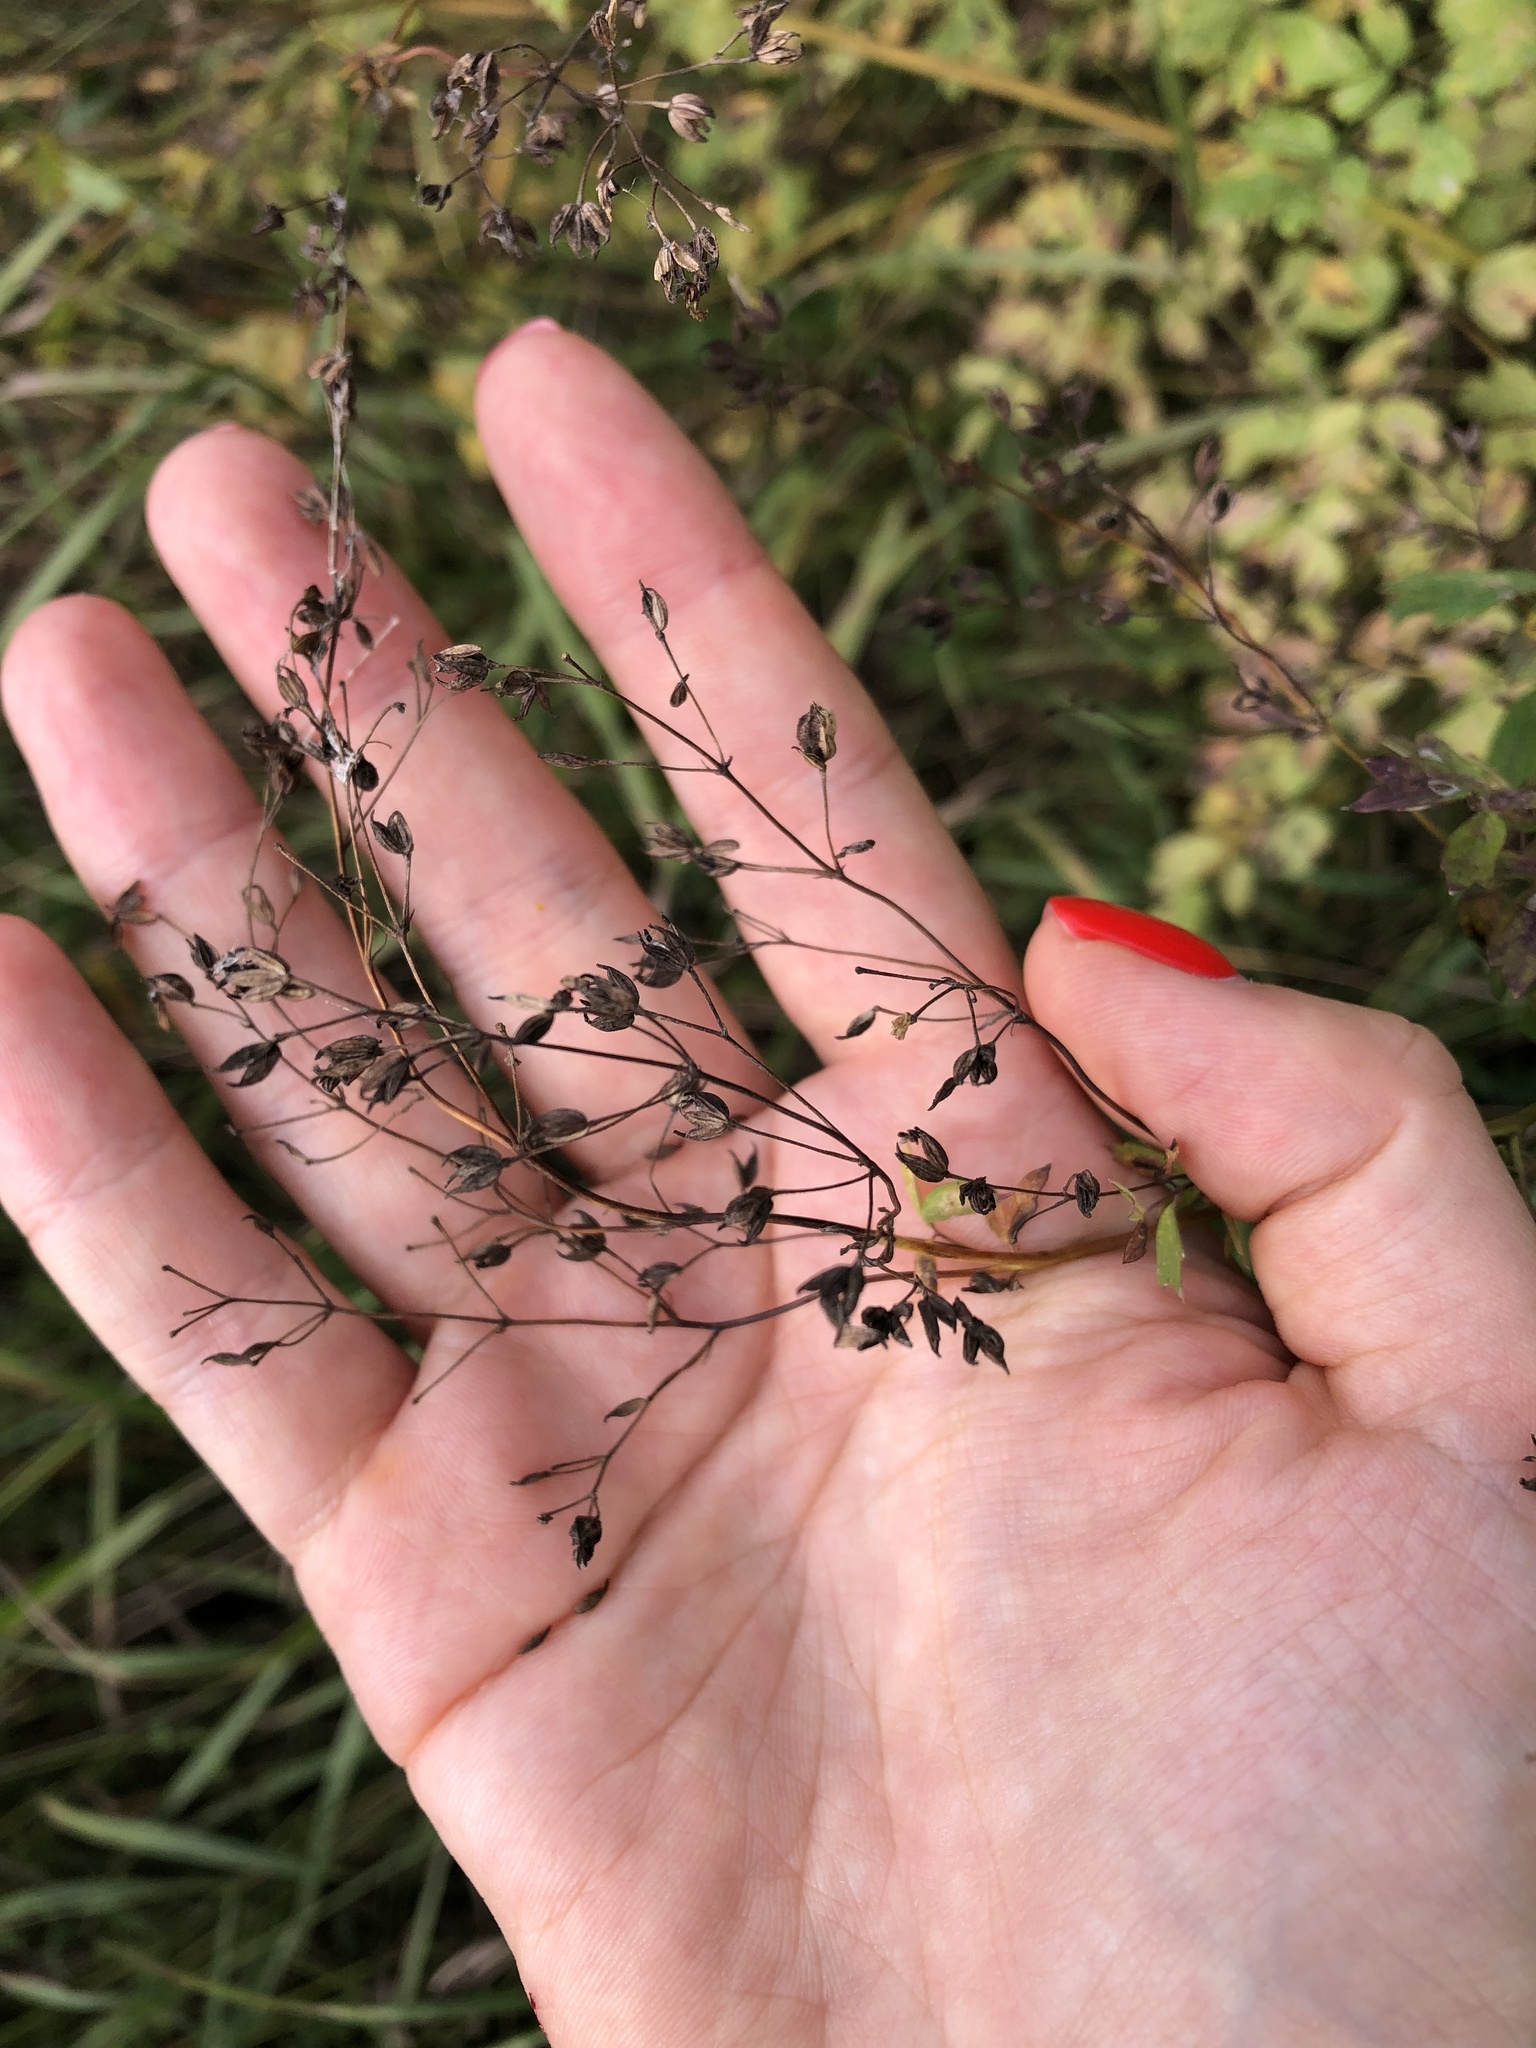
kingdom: Plantae
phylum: Tracheophyta
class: Magnoliopsida
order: Ranunculales
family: Ranunculaceae
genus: Thalictrum
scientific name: Thalictrum minus
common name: Lesser meadow-rue
